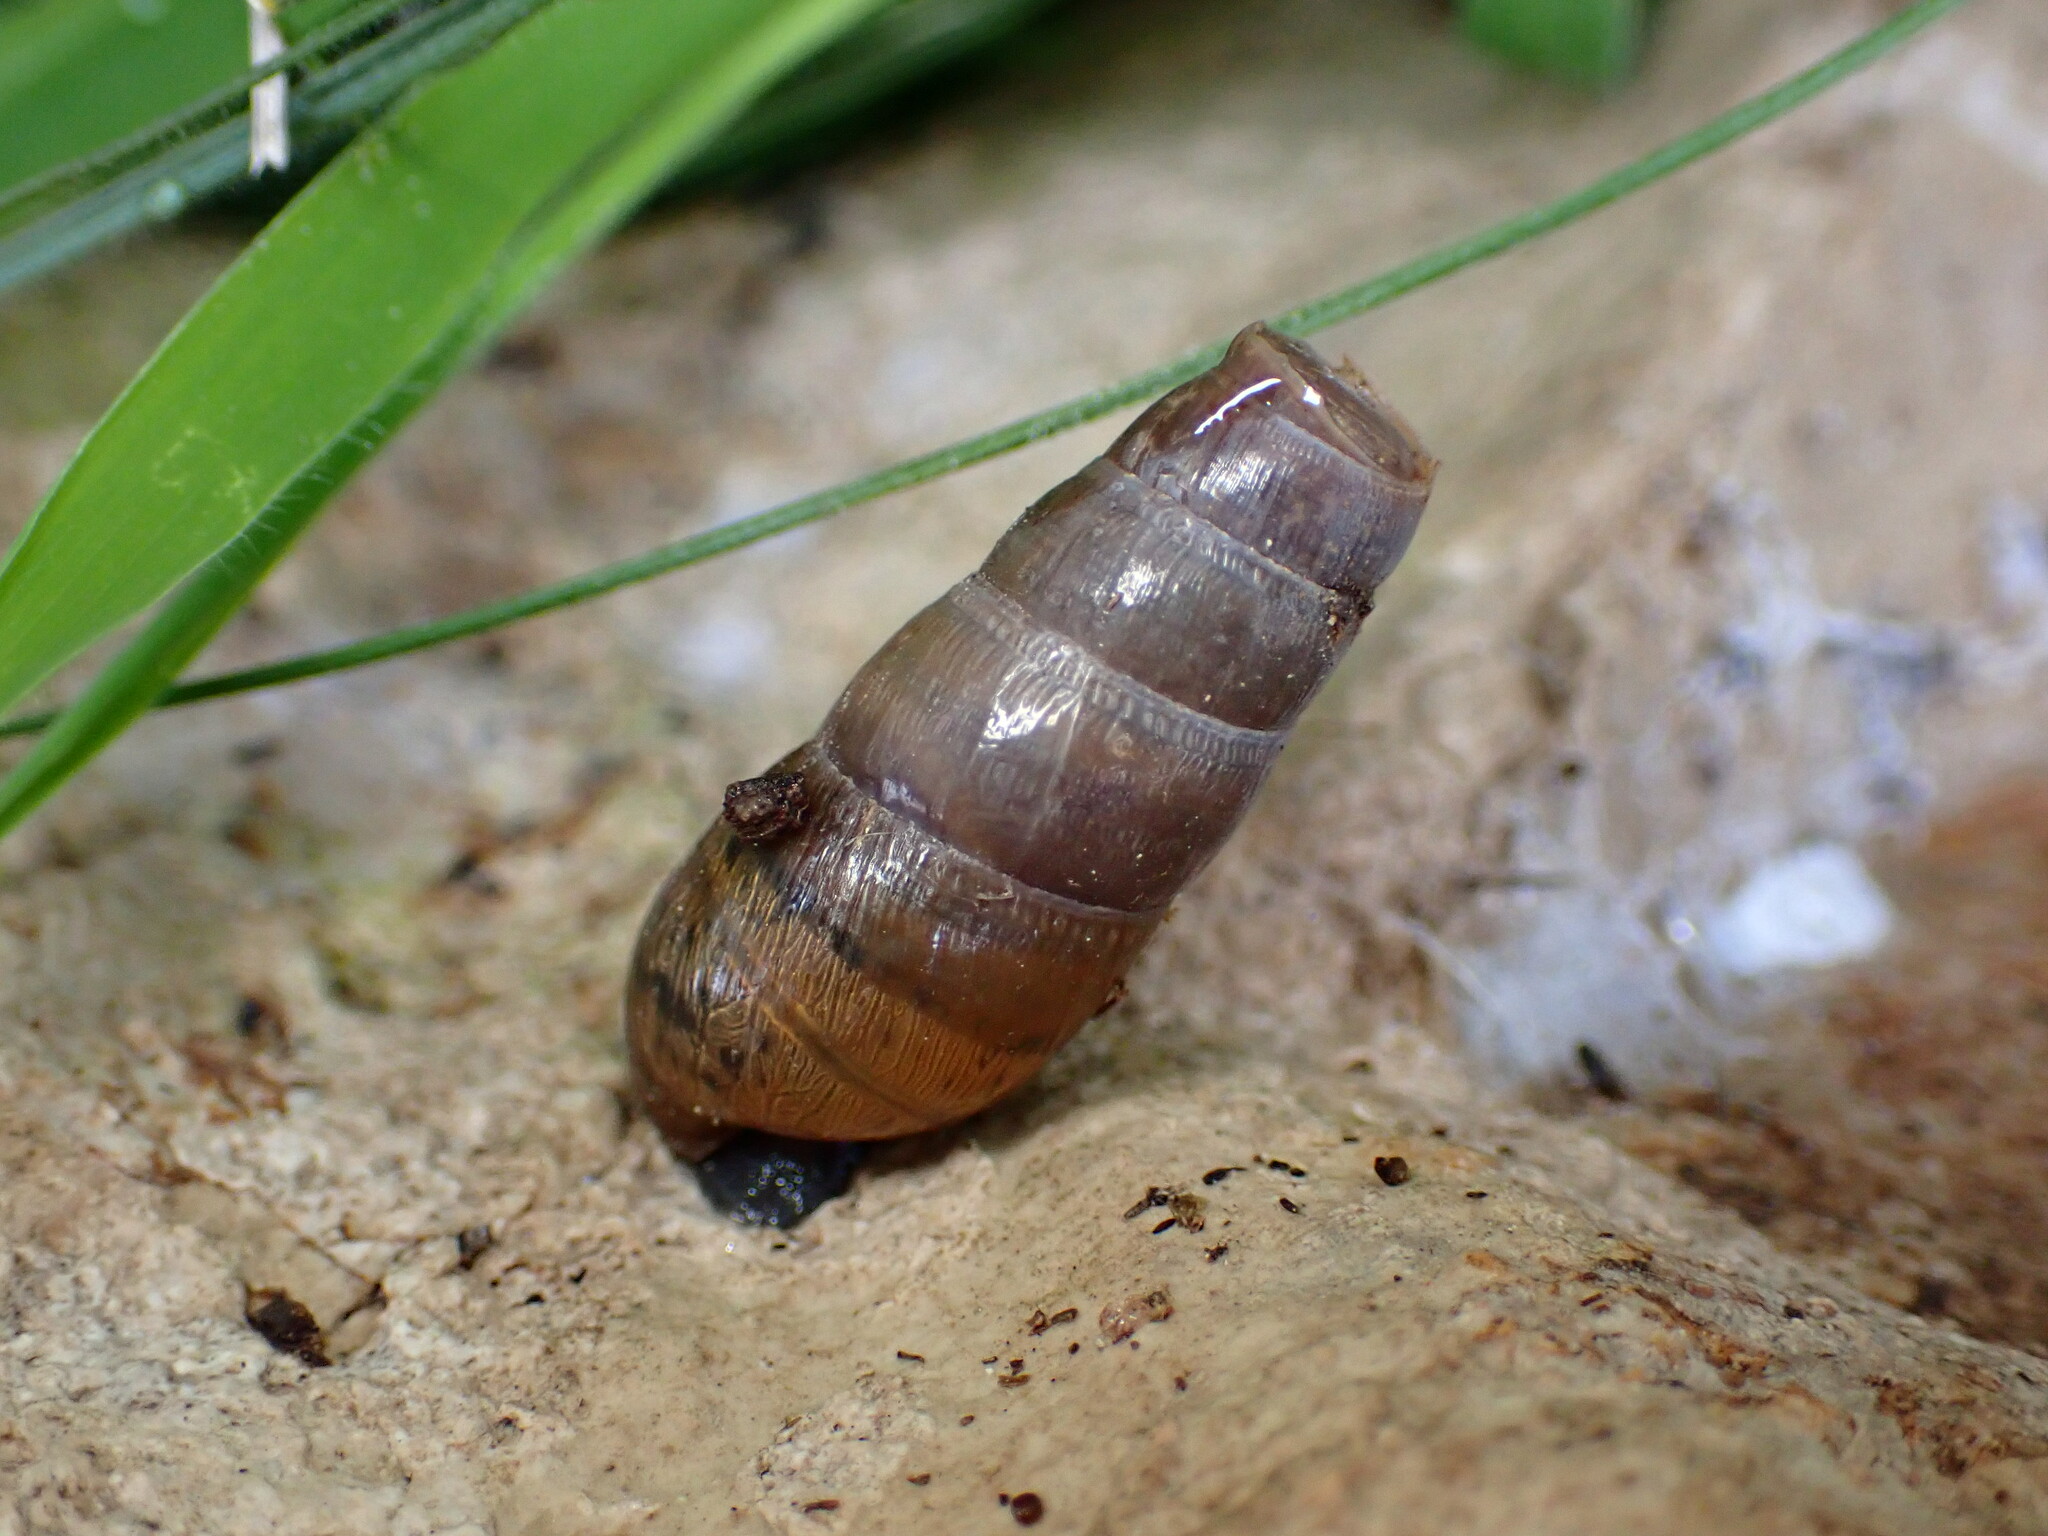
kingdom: Animalia
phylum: Mollusca
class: Gastropoda
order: Stylommatophora
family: Achatinidae
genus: Rumina
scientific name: Rumina decollata
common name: Decollate snail
